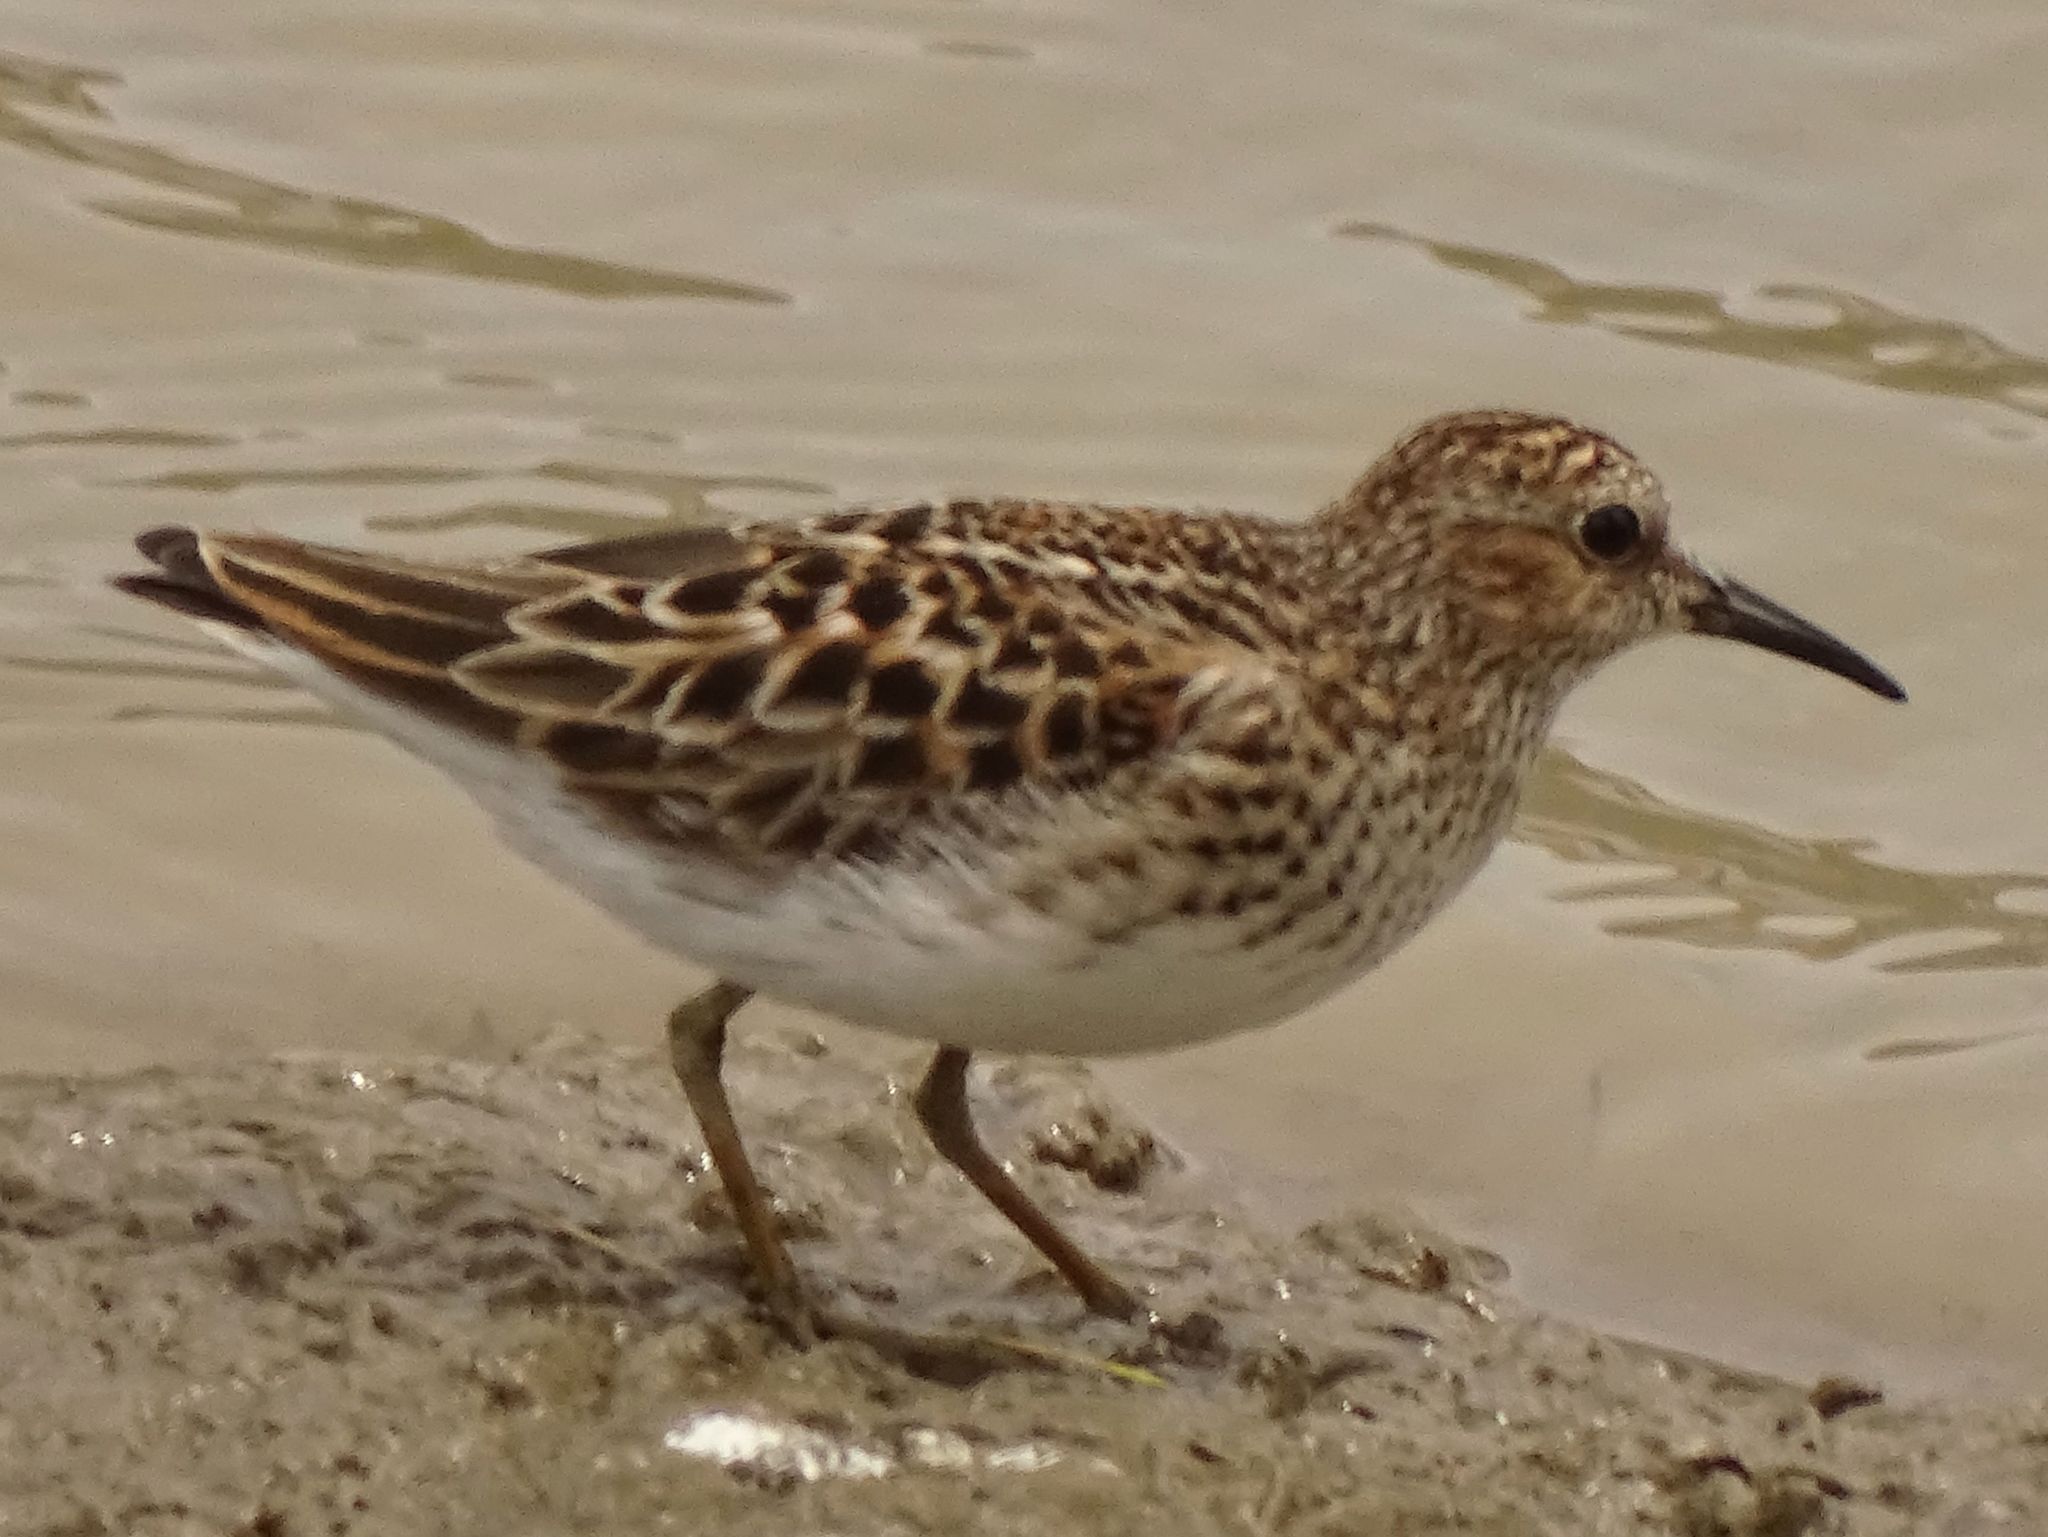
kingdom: Animalia
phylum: Chordata
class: Aves
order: Charadriiformes
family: Scolopacidae
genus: Calidris
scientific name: Calidris minutilla
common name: Least sandpiper
